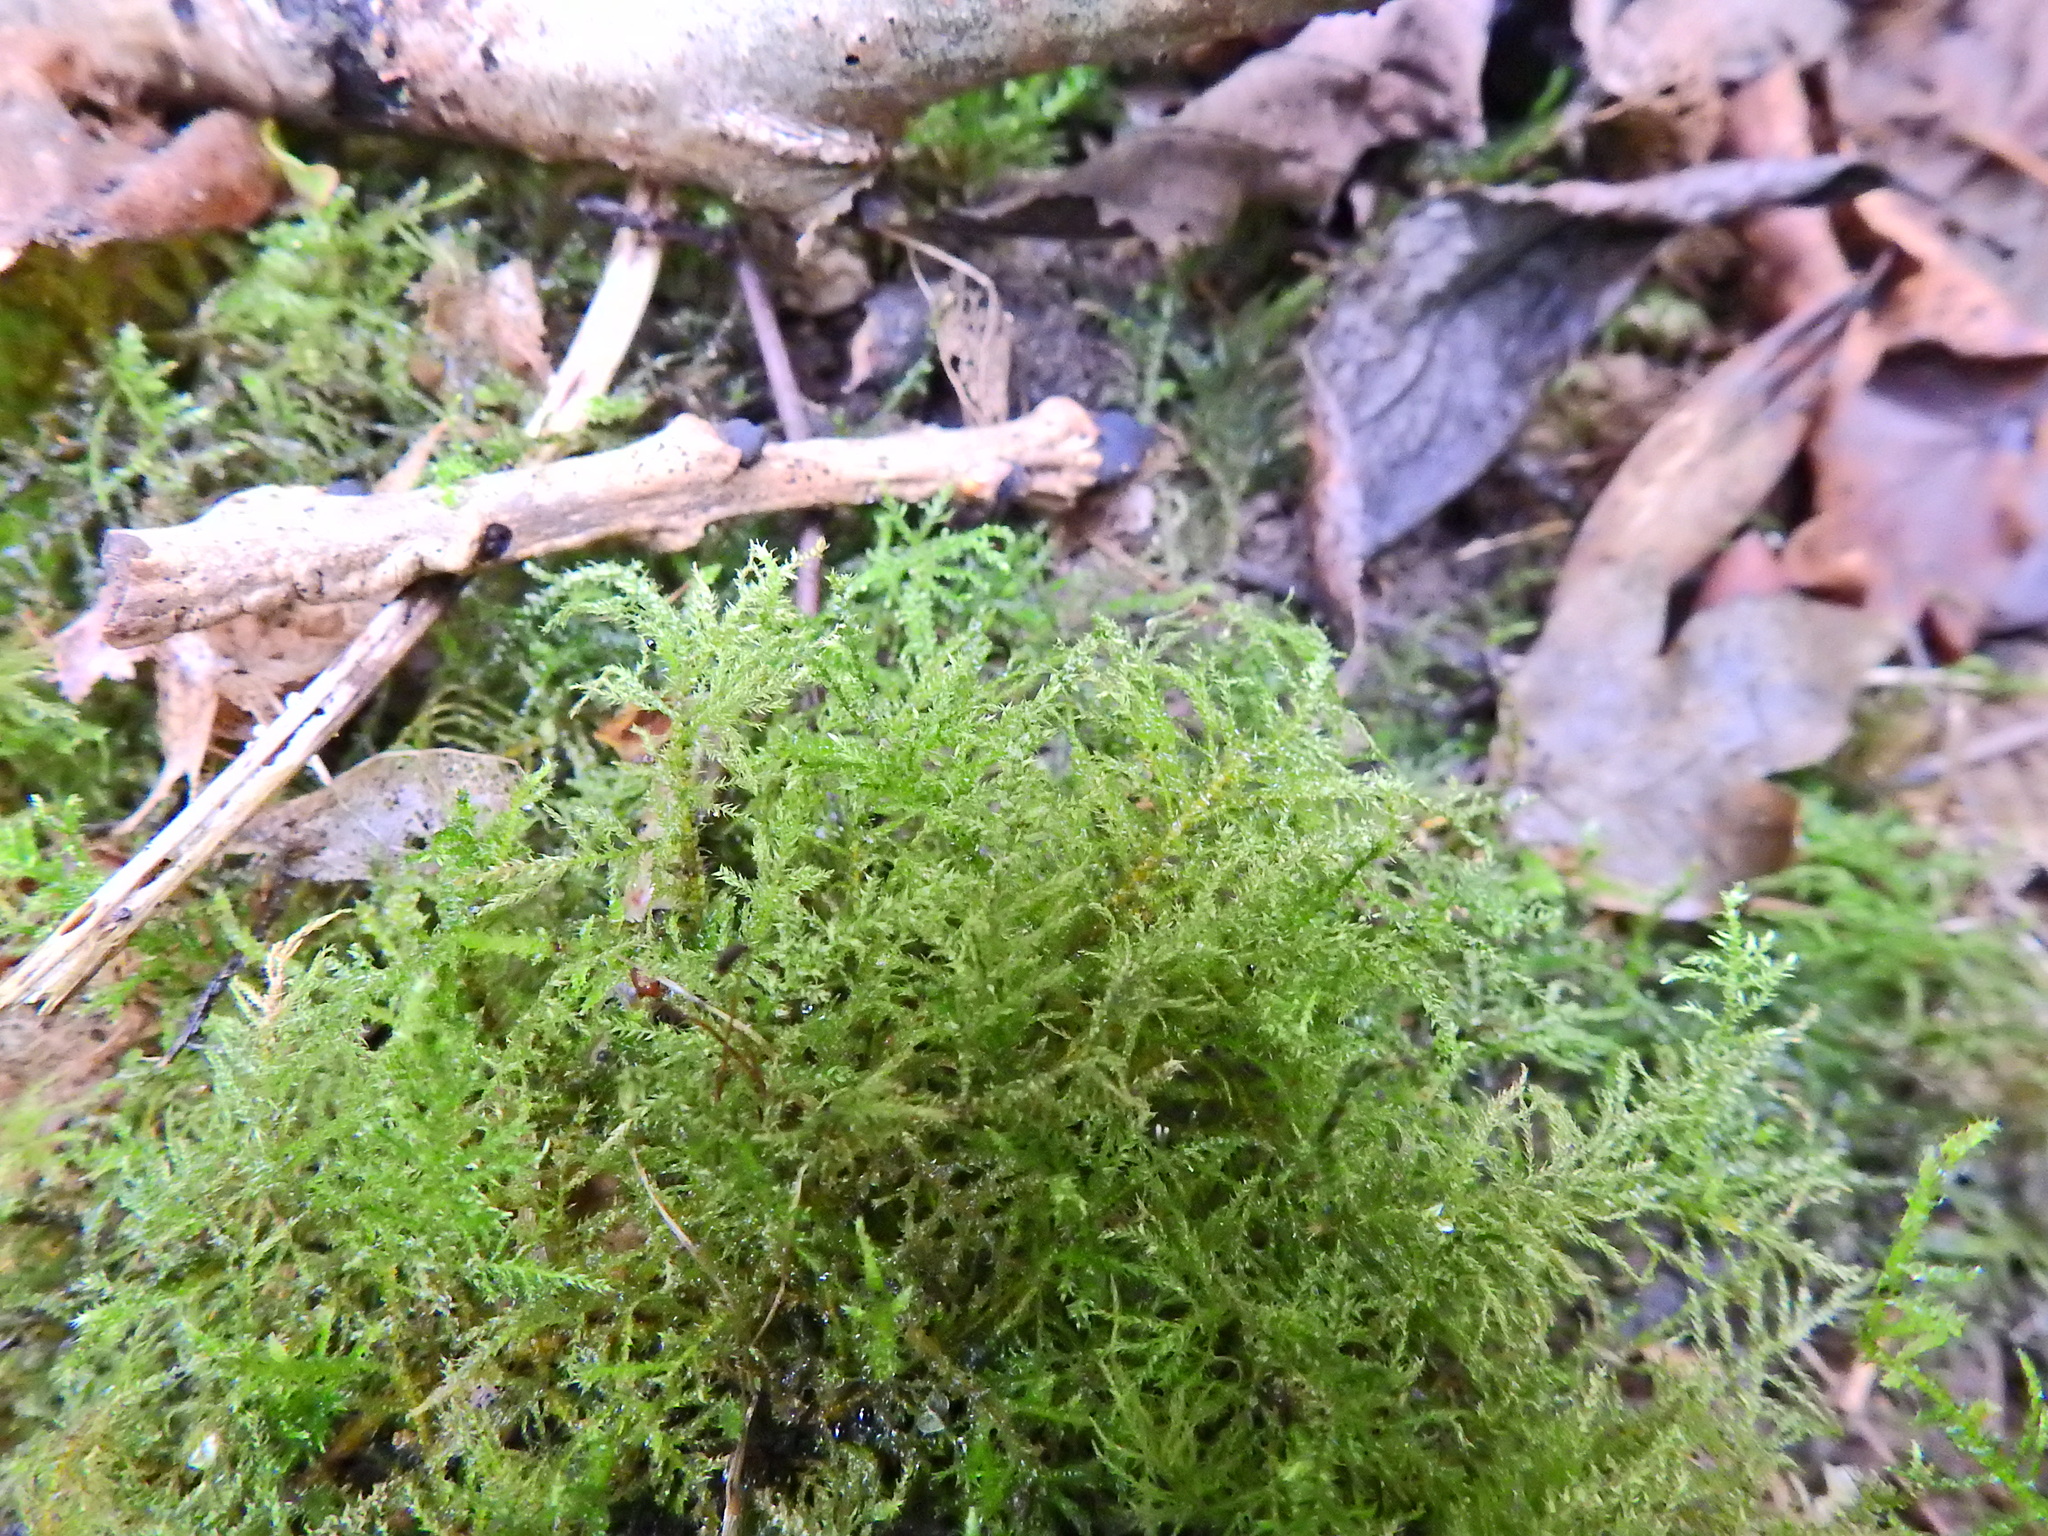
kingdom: Plantae
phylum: Bryophyta
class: Bryopsida
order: Hypnales
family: Brachytheciaceae
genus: Kindbergia
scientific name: Kindbergia praelonga
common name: Slender beaked moss
